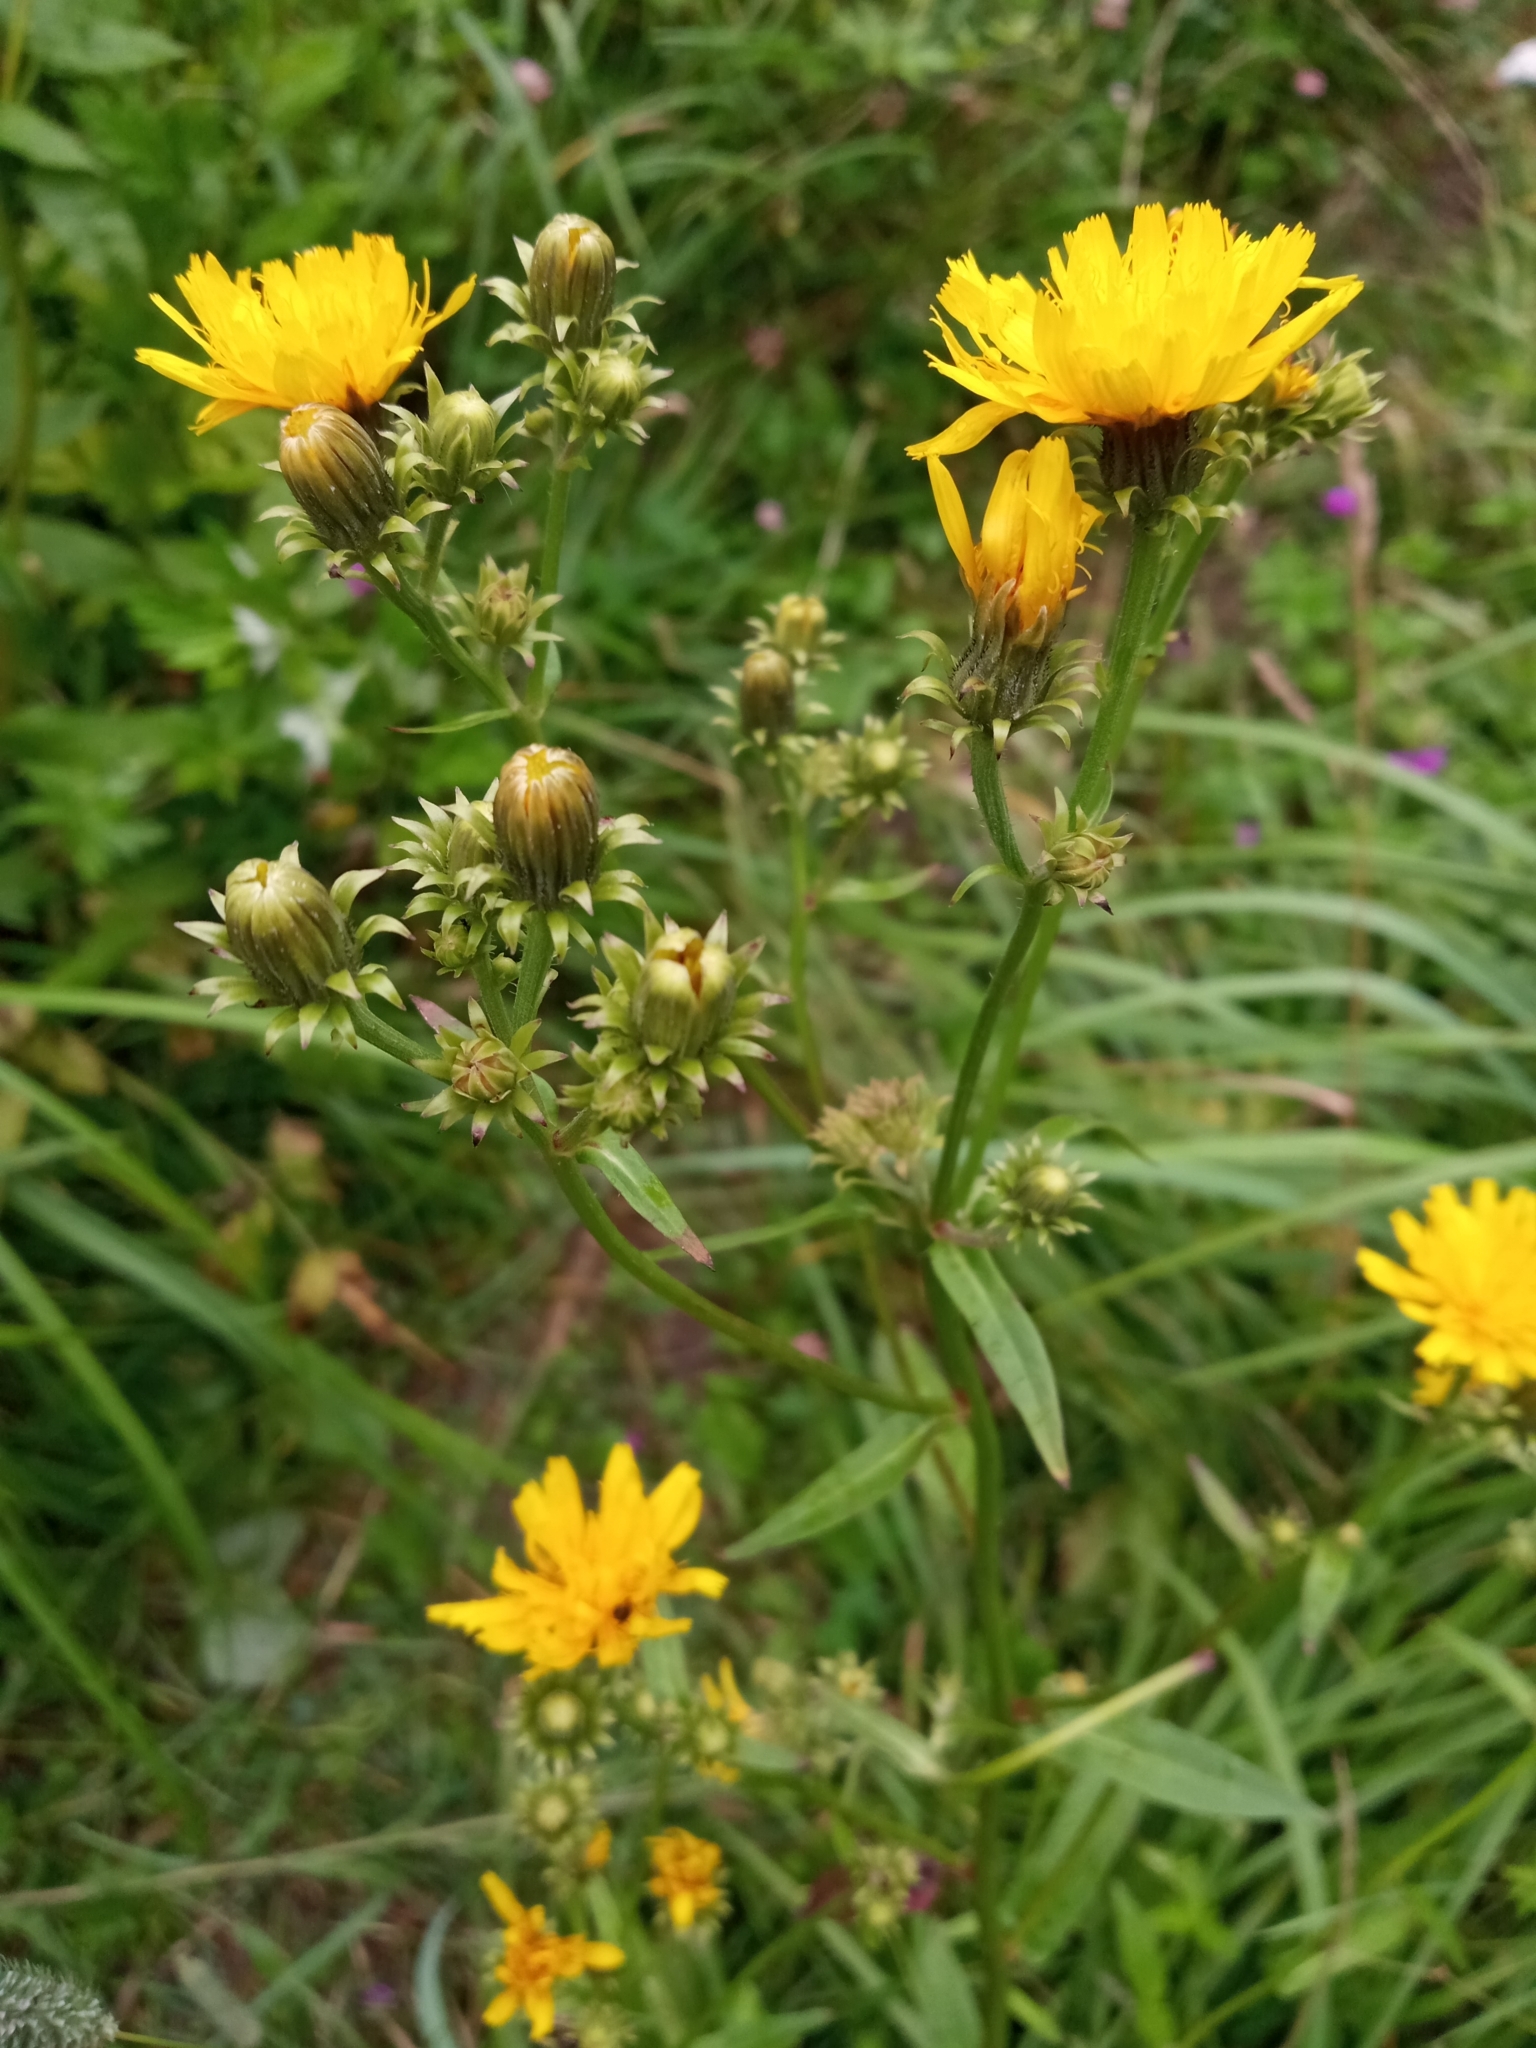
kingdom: Plantae
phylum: Tracheophyta
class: Magnoliopsida
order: Asterales
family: Asteraceae
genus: Picris
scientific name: Picris hieracioides
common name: Hawkweed oxtongue
